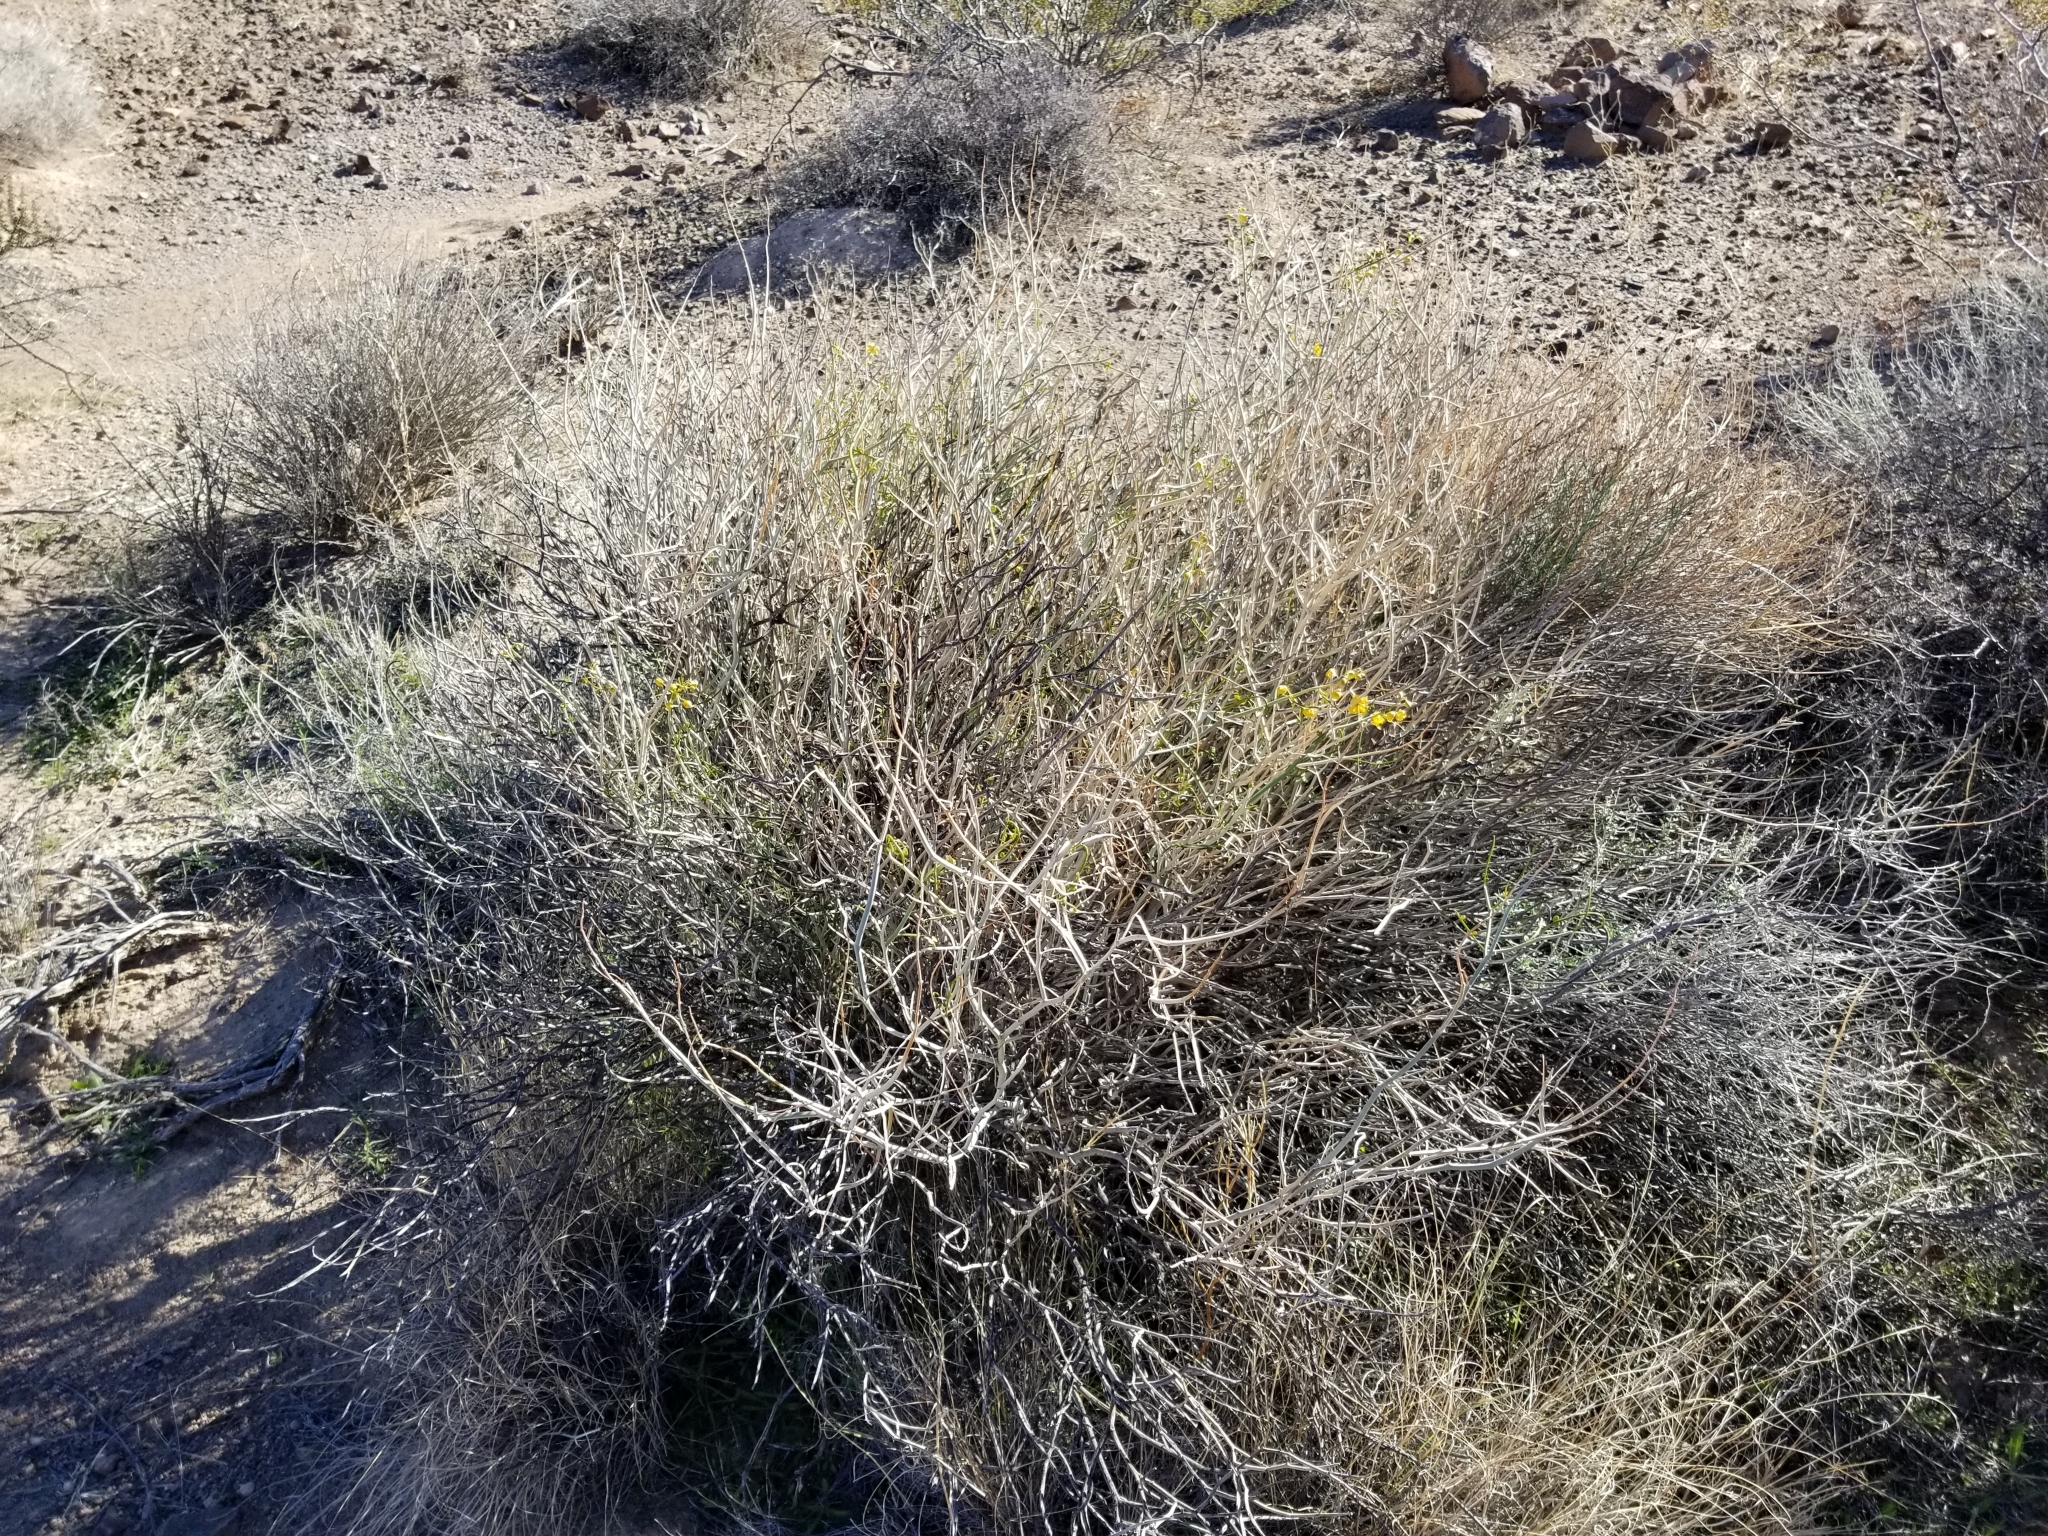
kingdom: Plantae
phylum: Tracheophyta
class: Magnoliopsida
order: Fabales
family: Fabaceae
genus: Senna
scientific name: Senna armata
